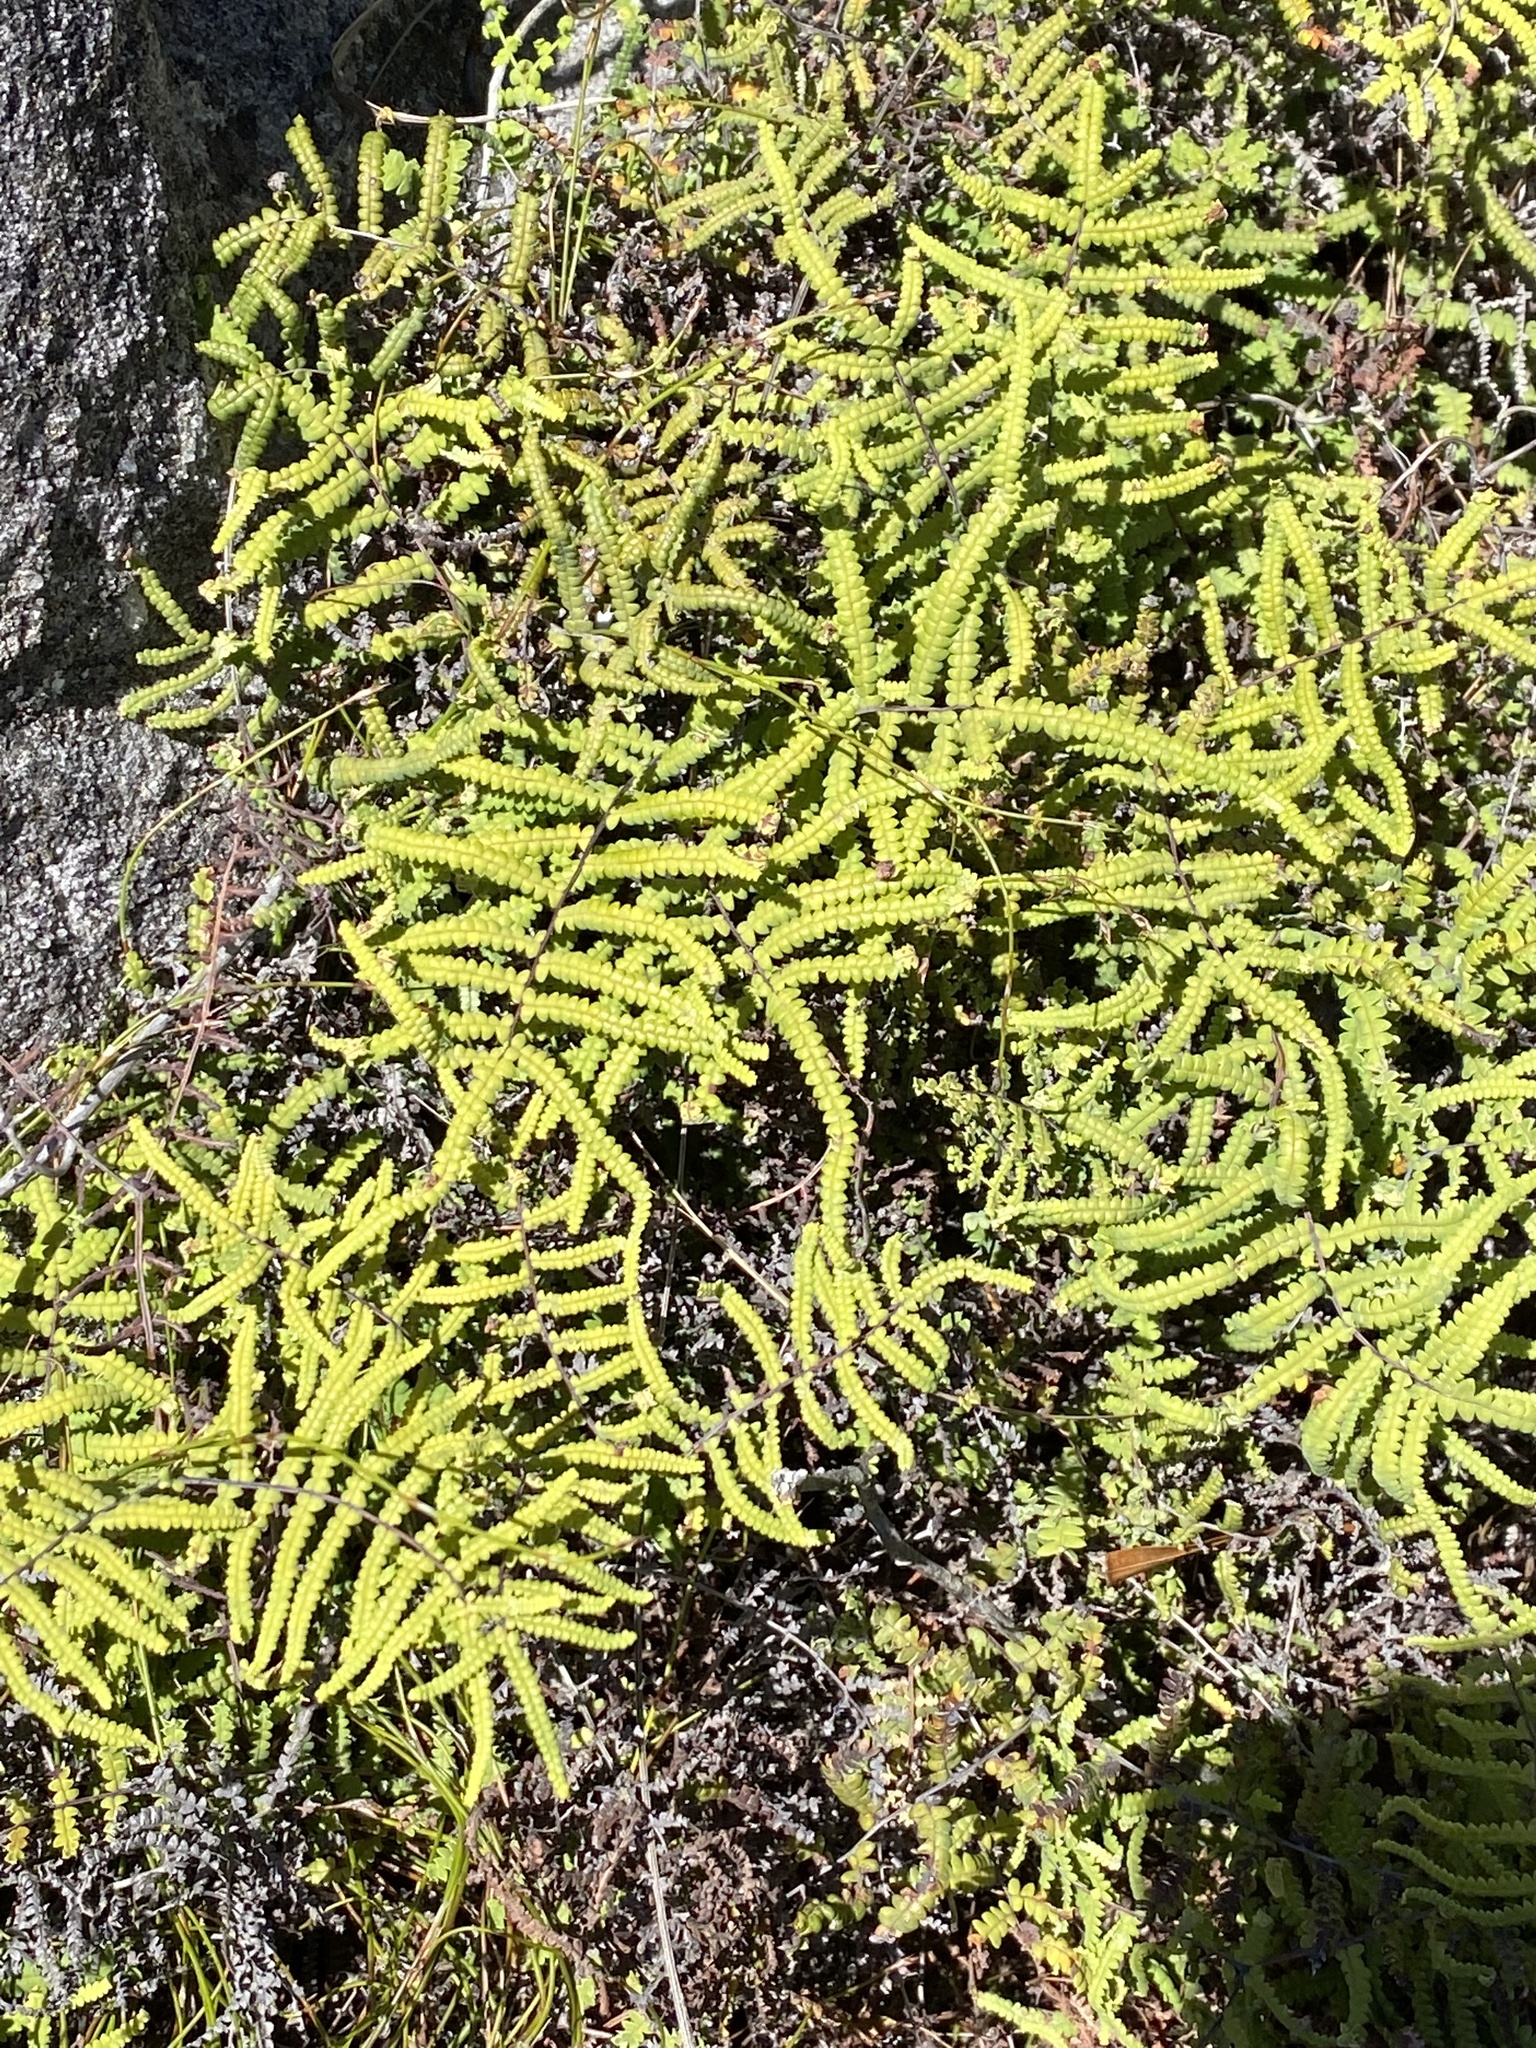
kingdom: Plantae
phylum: Tracheophyta
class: Polypodiopsida
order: Gleicheniales
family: Gleicheniaceae
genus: Gleichenia
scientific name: Gleichenia polypodioides
